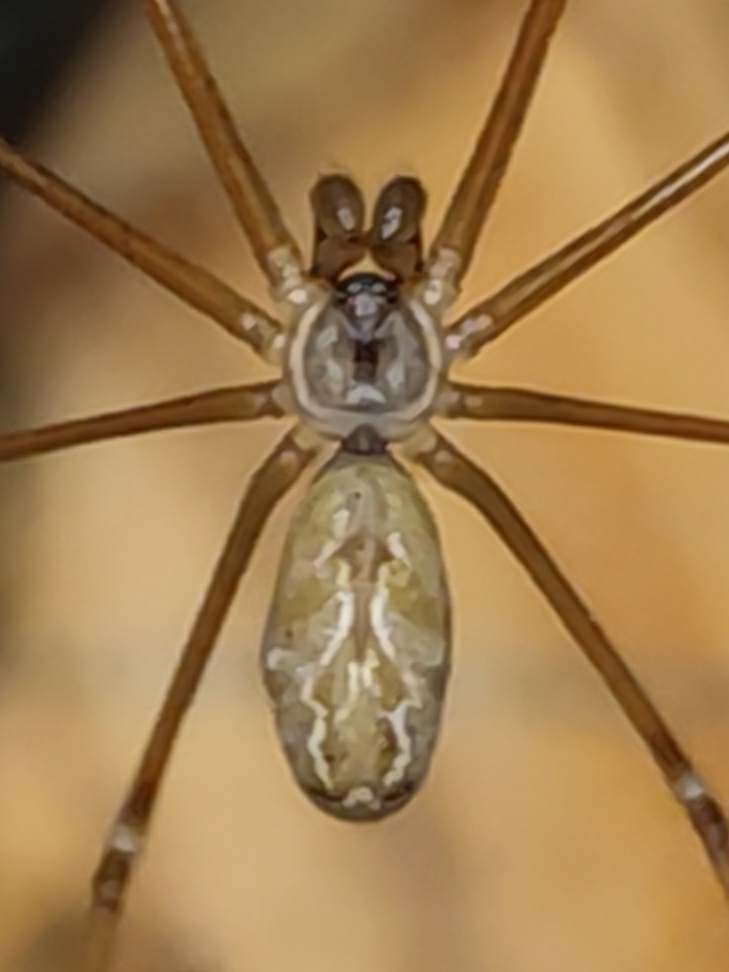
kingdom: Animalia
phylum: Arthropoda
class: Arachnida
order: Araneae
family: Pholcidae
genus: Holocnemus
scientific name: Holocnemus pluchei
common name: Marbled cellar spider
